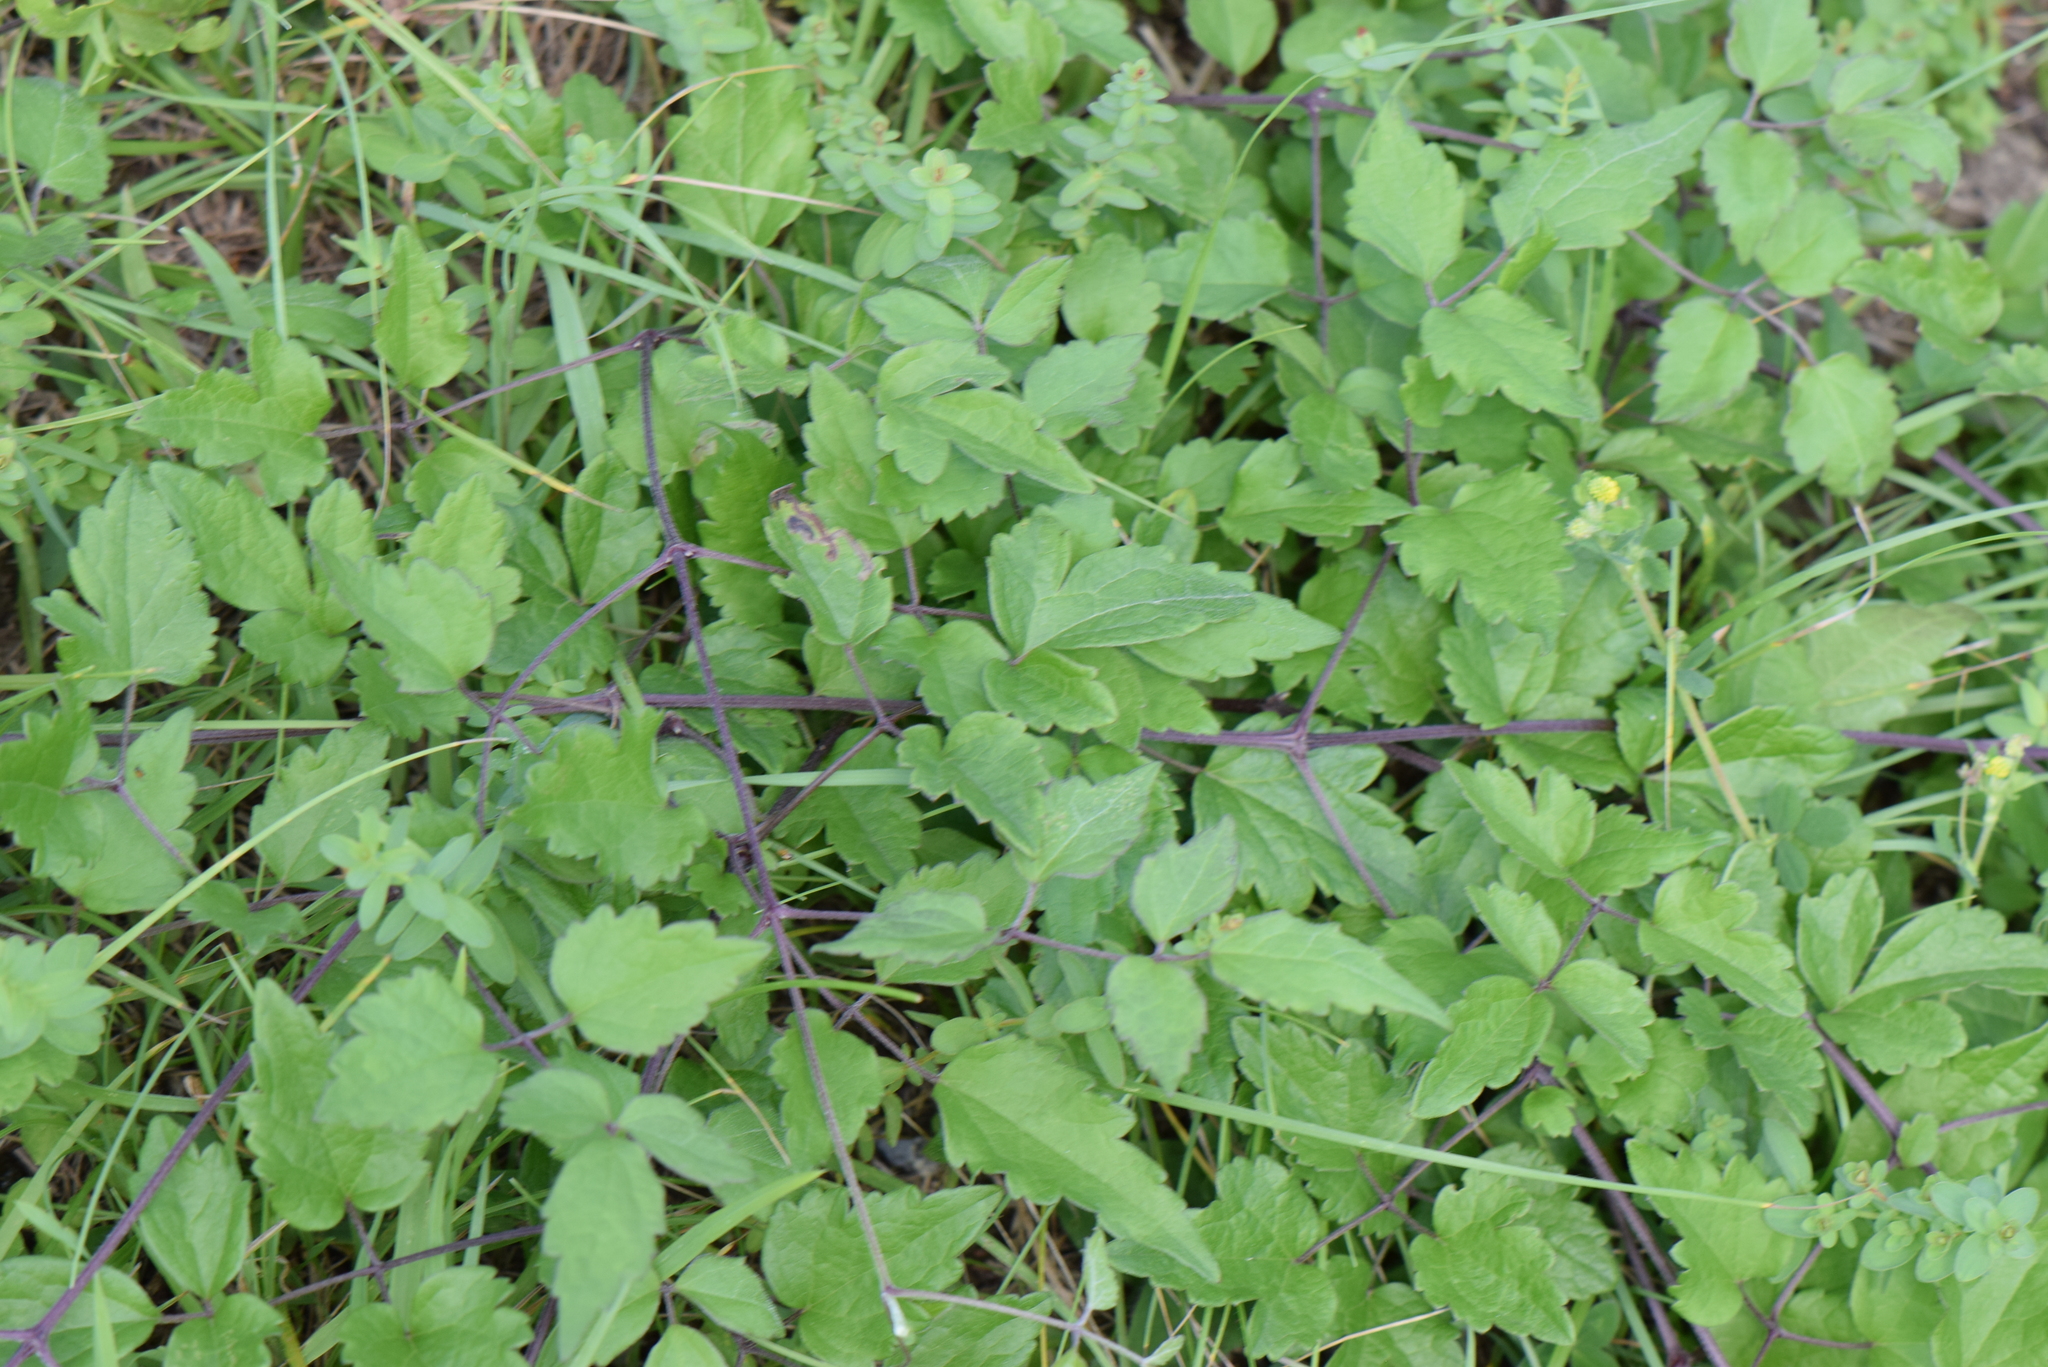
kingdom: Plantae
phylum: Tracheophyta
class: Magnoliopsida
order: Ranunculales
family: Ranunculaceae
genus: Clematis
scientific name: Clematis vitalba
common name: Evergreen clematis
